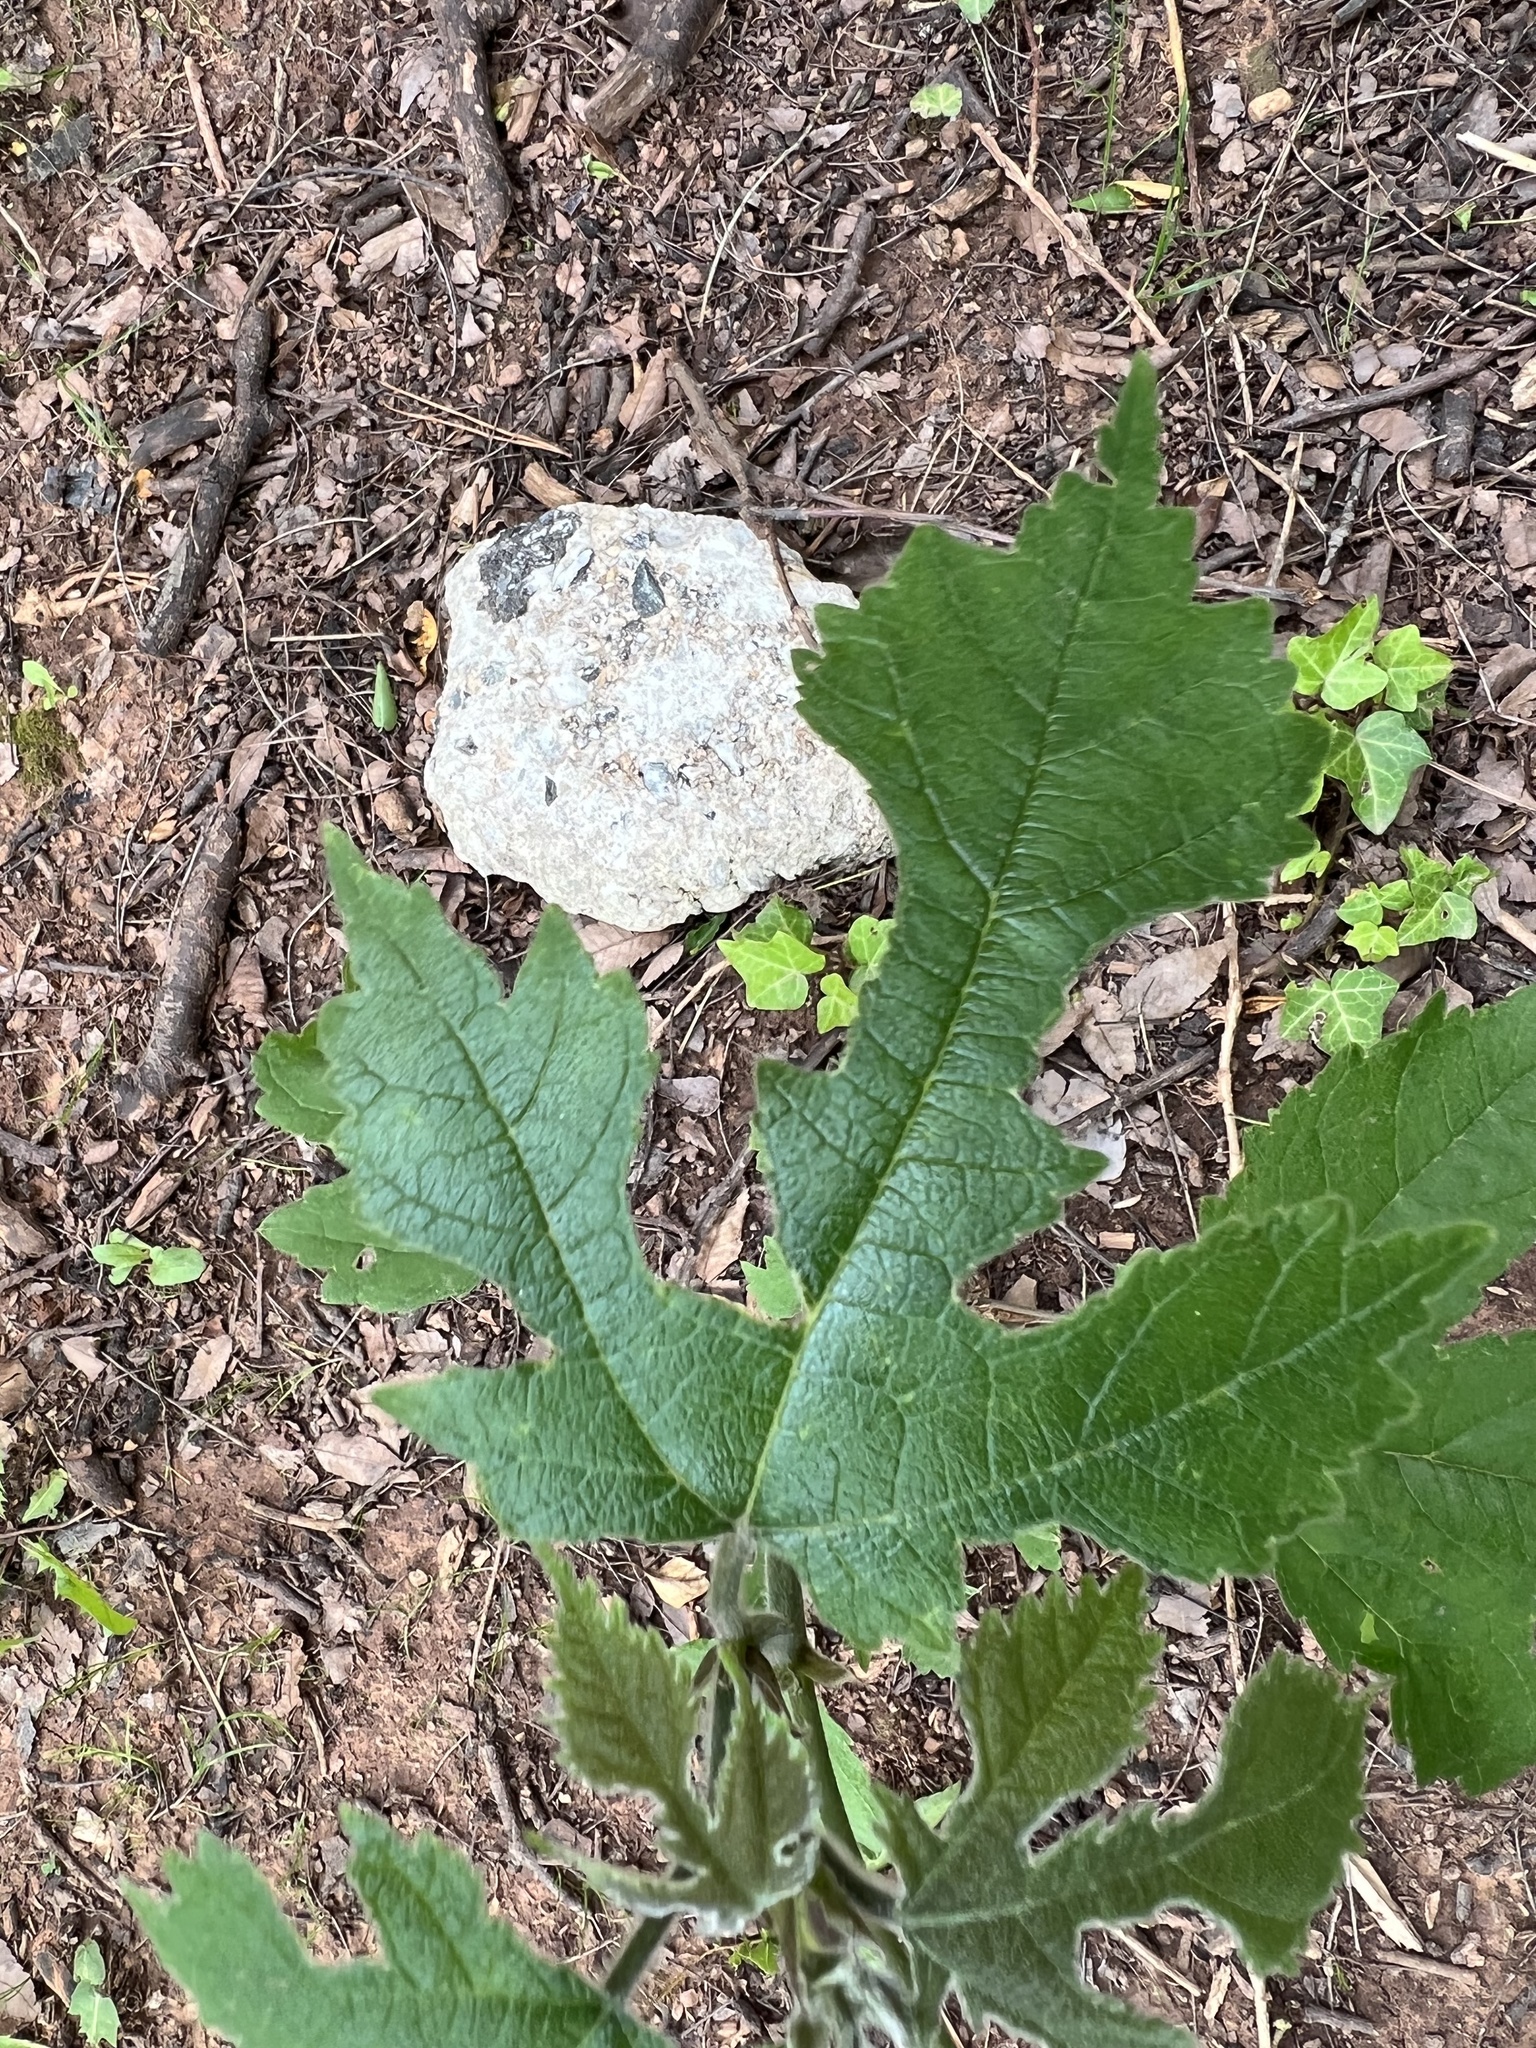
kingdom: Plantae
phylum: Tracheophyta
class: Magnoliopsida
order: Rosales
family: Moraceae
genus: Broussonetia
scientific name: Broussonetia papyrifera
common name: Paper mulberry
